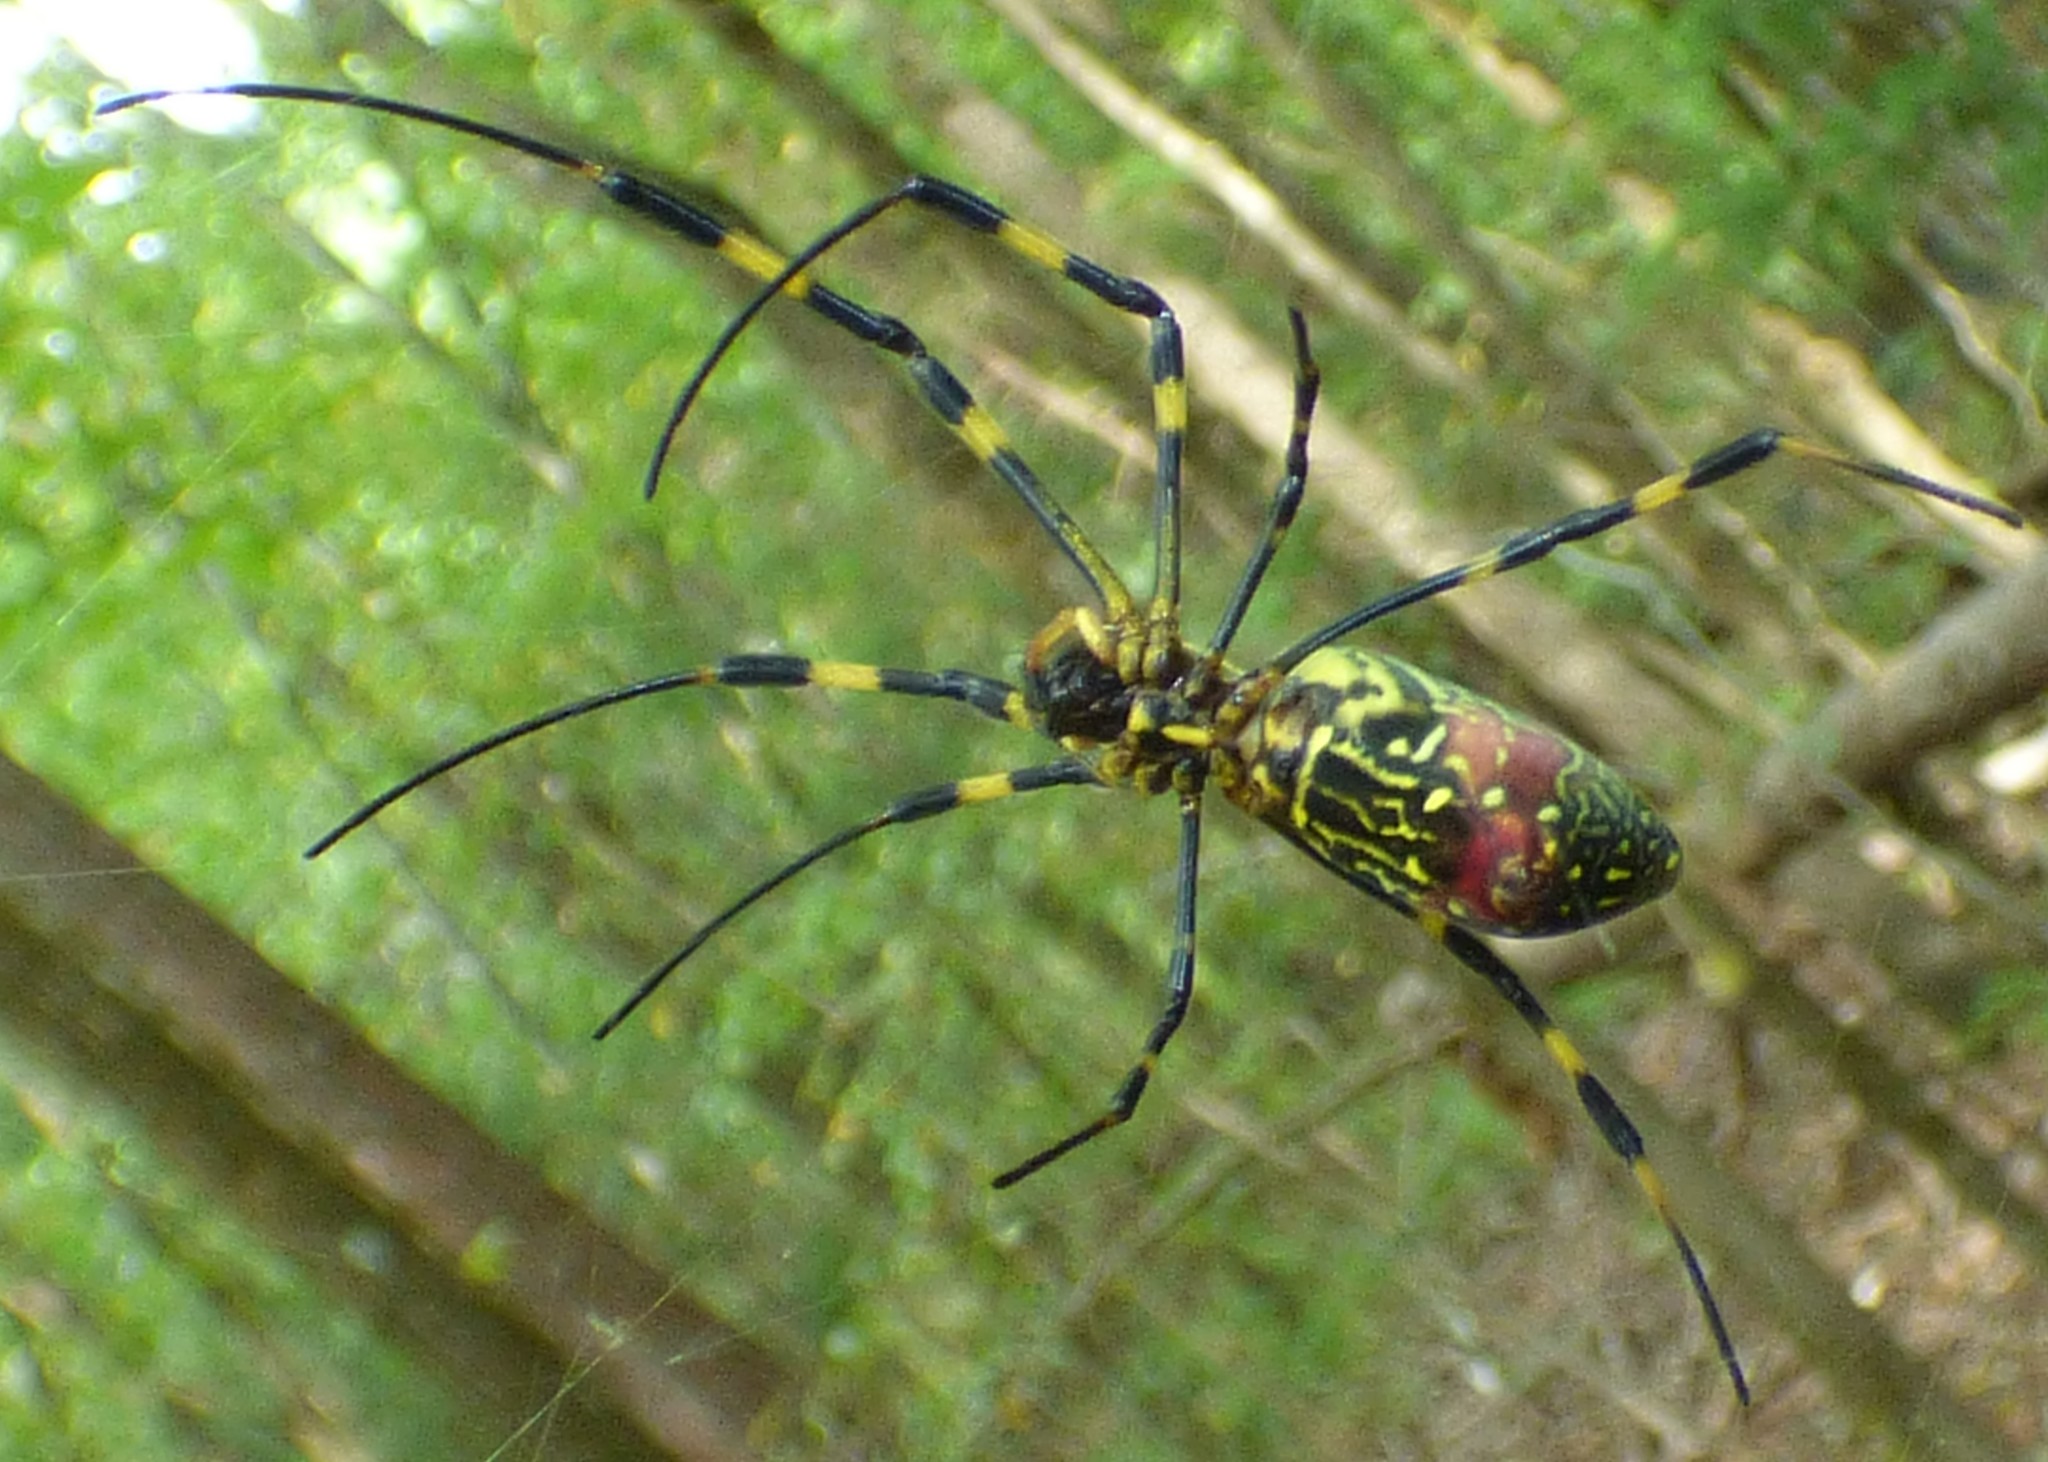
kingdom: Animalia
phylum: Arthropoda
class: Arachnida
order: Araneae
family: Araneidae
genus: Trichonephila
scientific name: Trichonephila clavata
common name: Jorō spider
